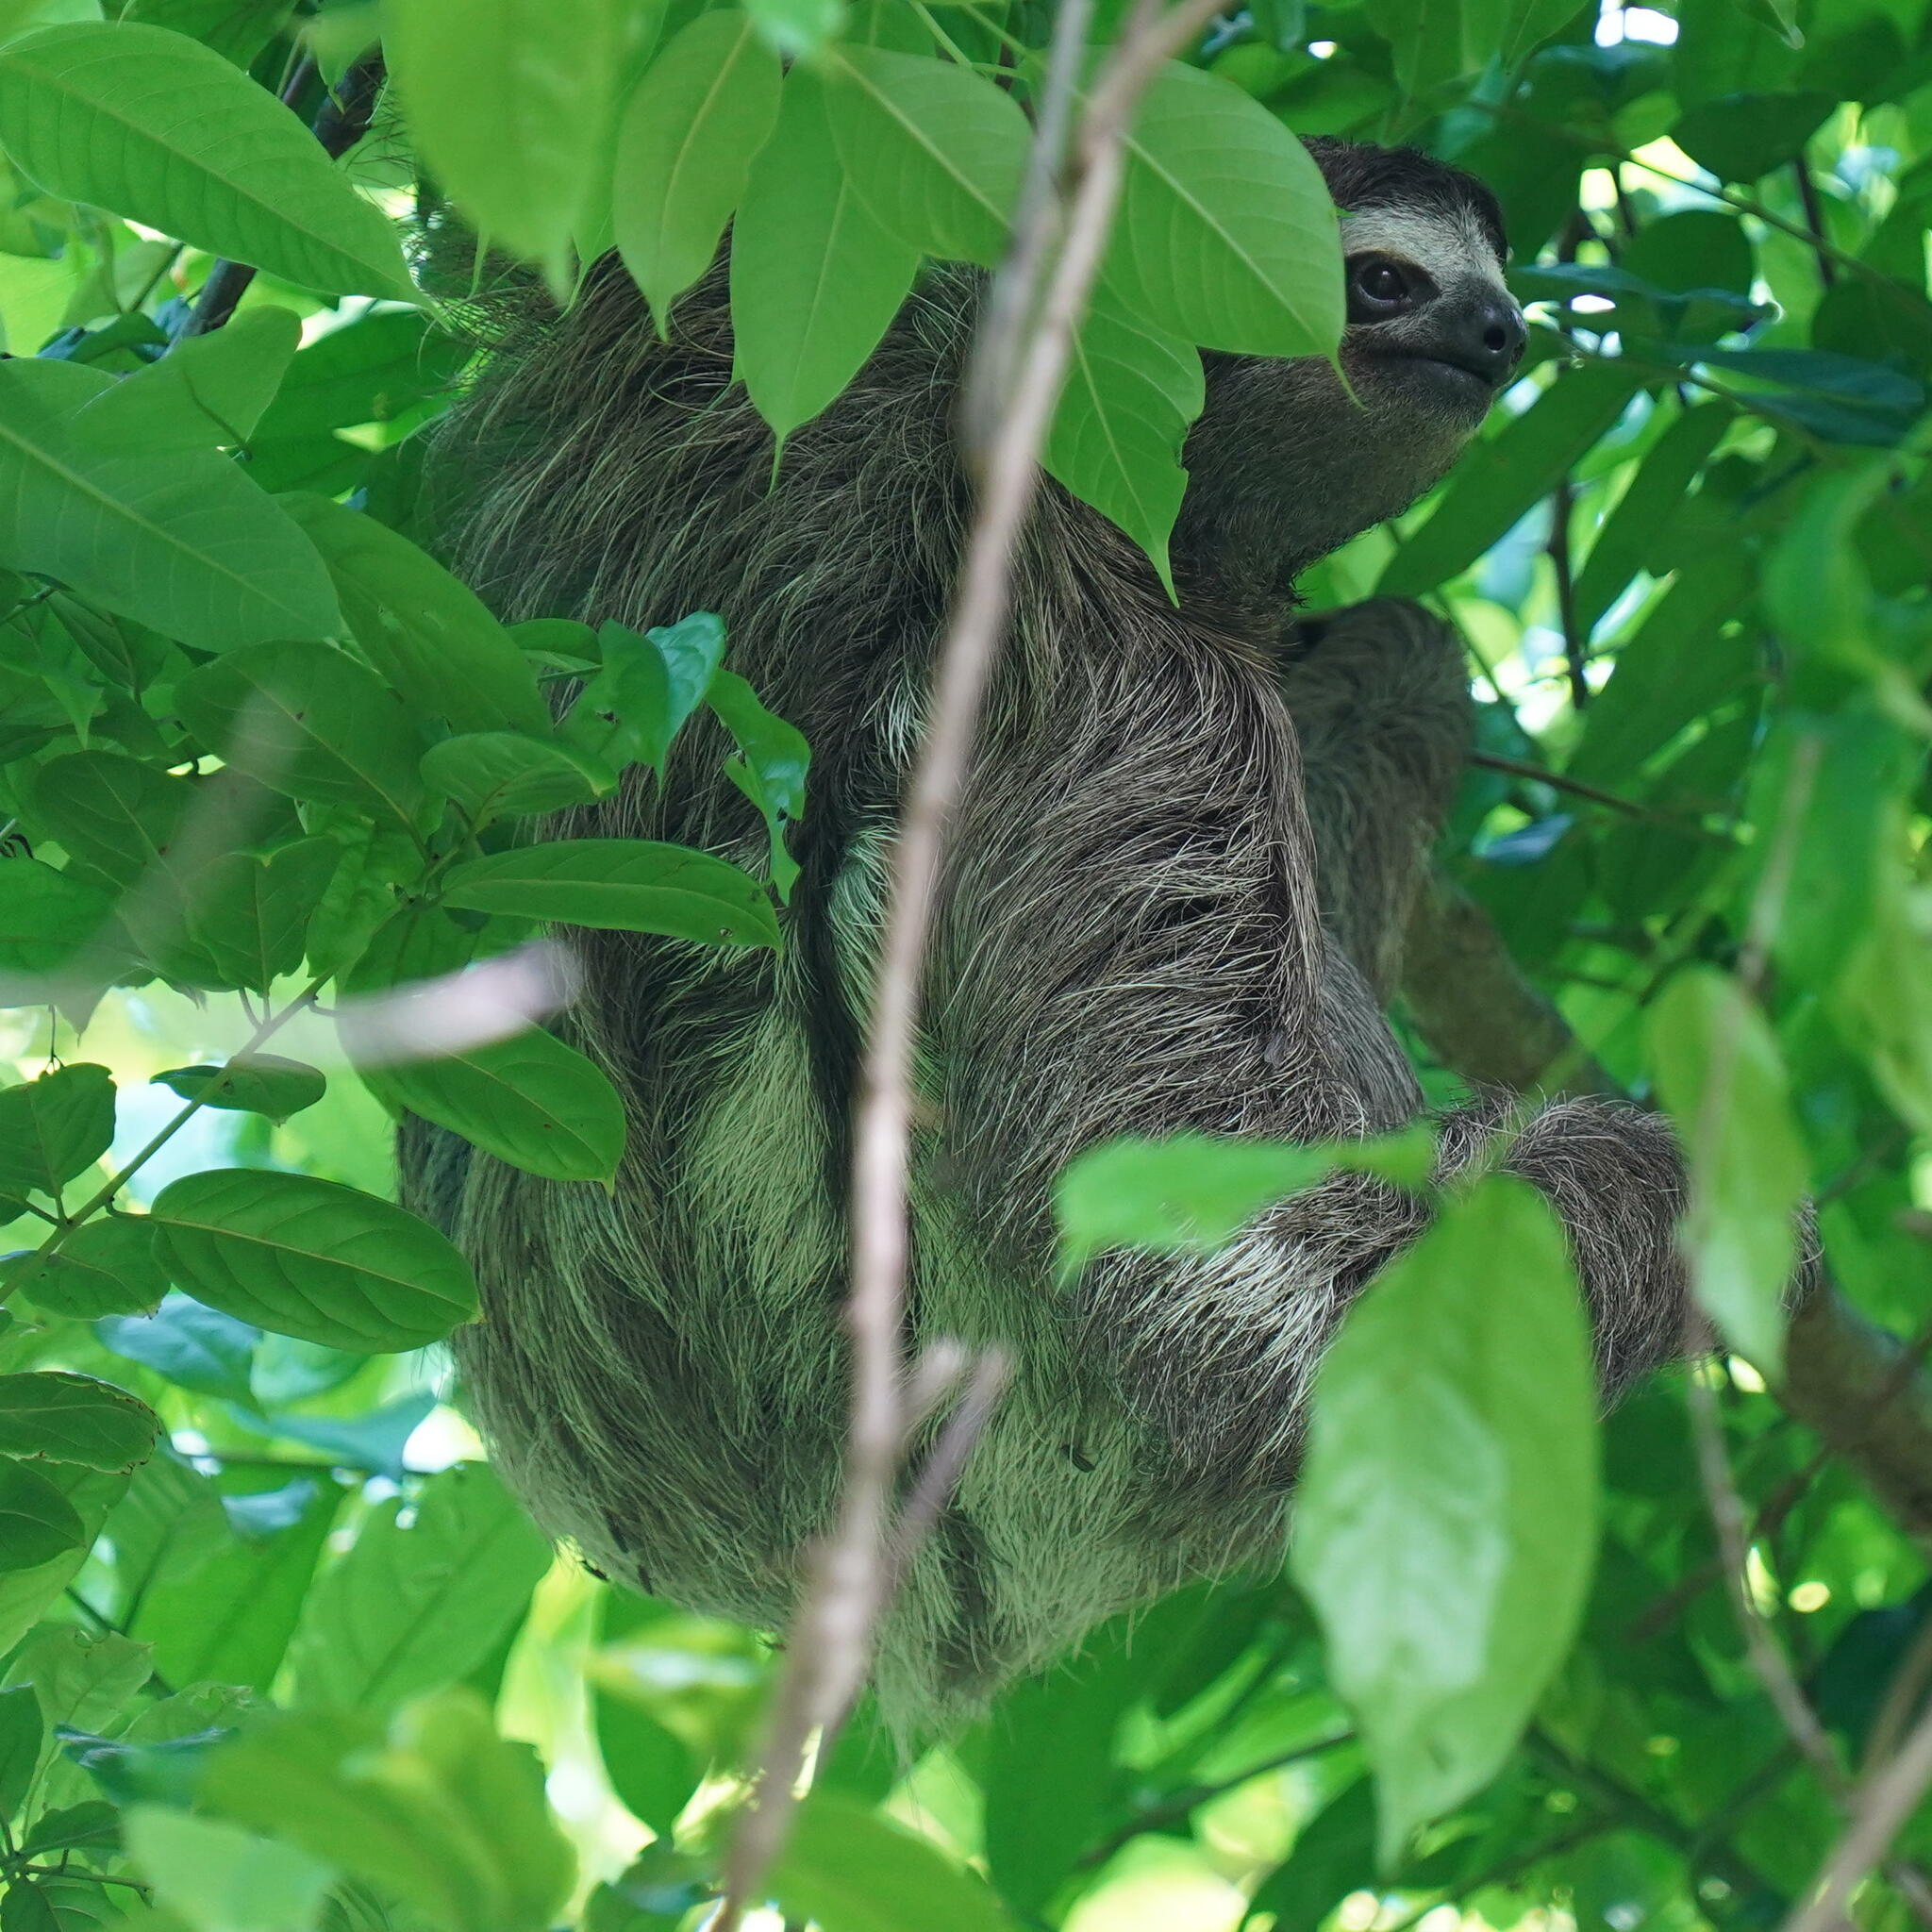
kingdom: Animalia
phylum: Chordata
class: Mammalia
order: Pilosa
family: Bradypodidae
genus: Bradypus
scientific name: Bradypus variegatus
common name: Brown-throated three-toed sloth
